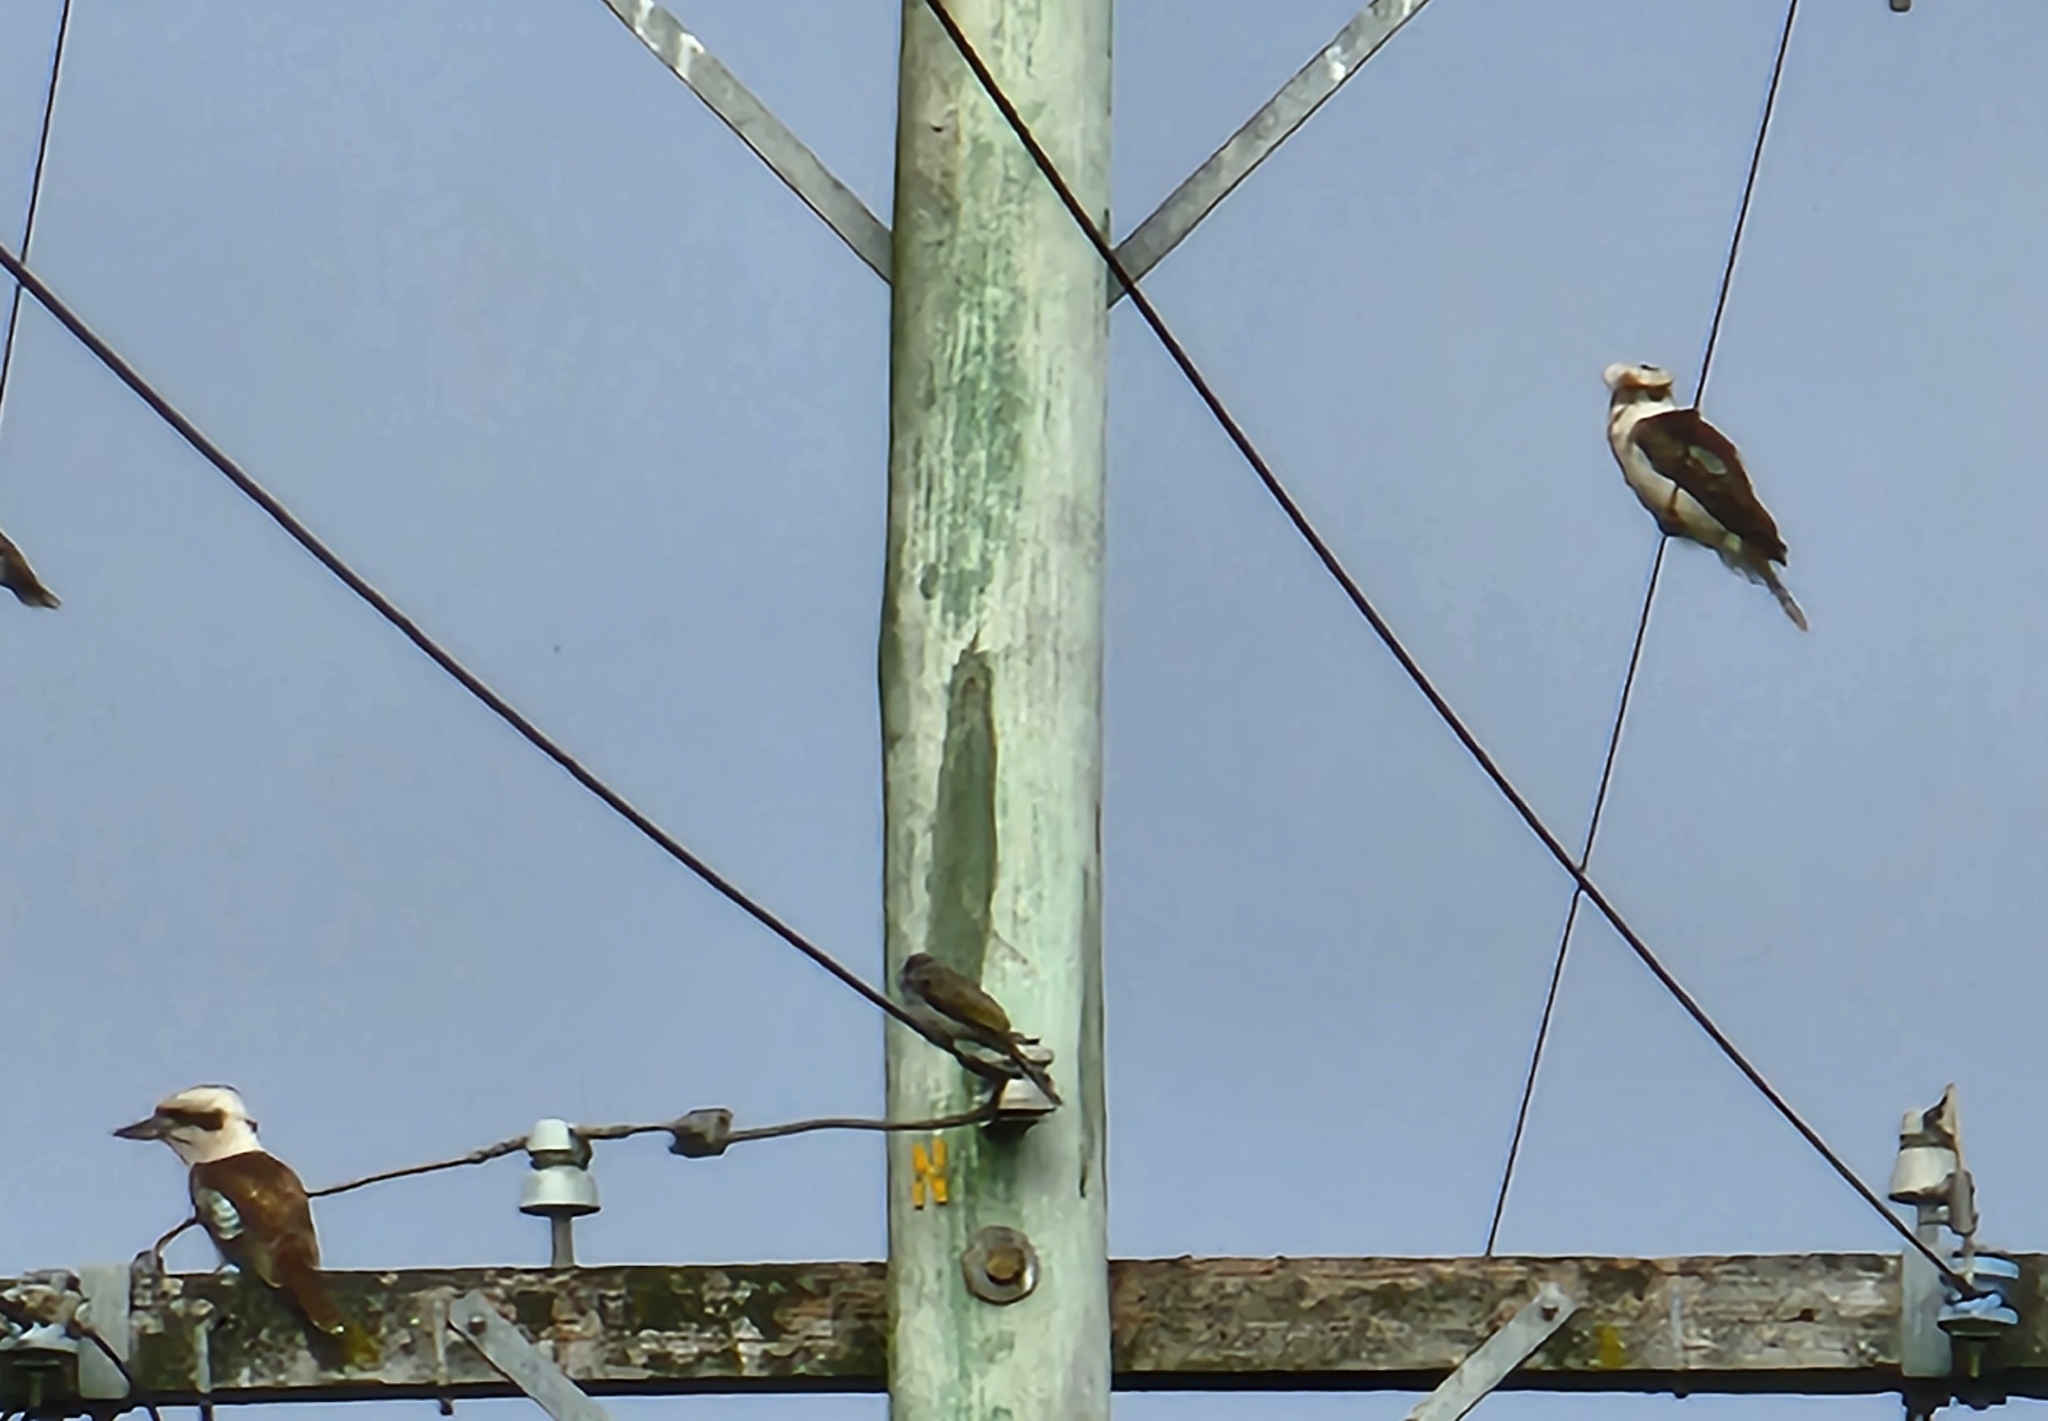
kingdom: Animalia
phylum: Chordata
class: Aves
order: Coraciiformes
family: Alcedinidae
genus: Dacelo
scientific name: Dacelo novaeguineae
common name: Laughing kookaburra
